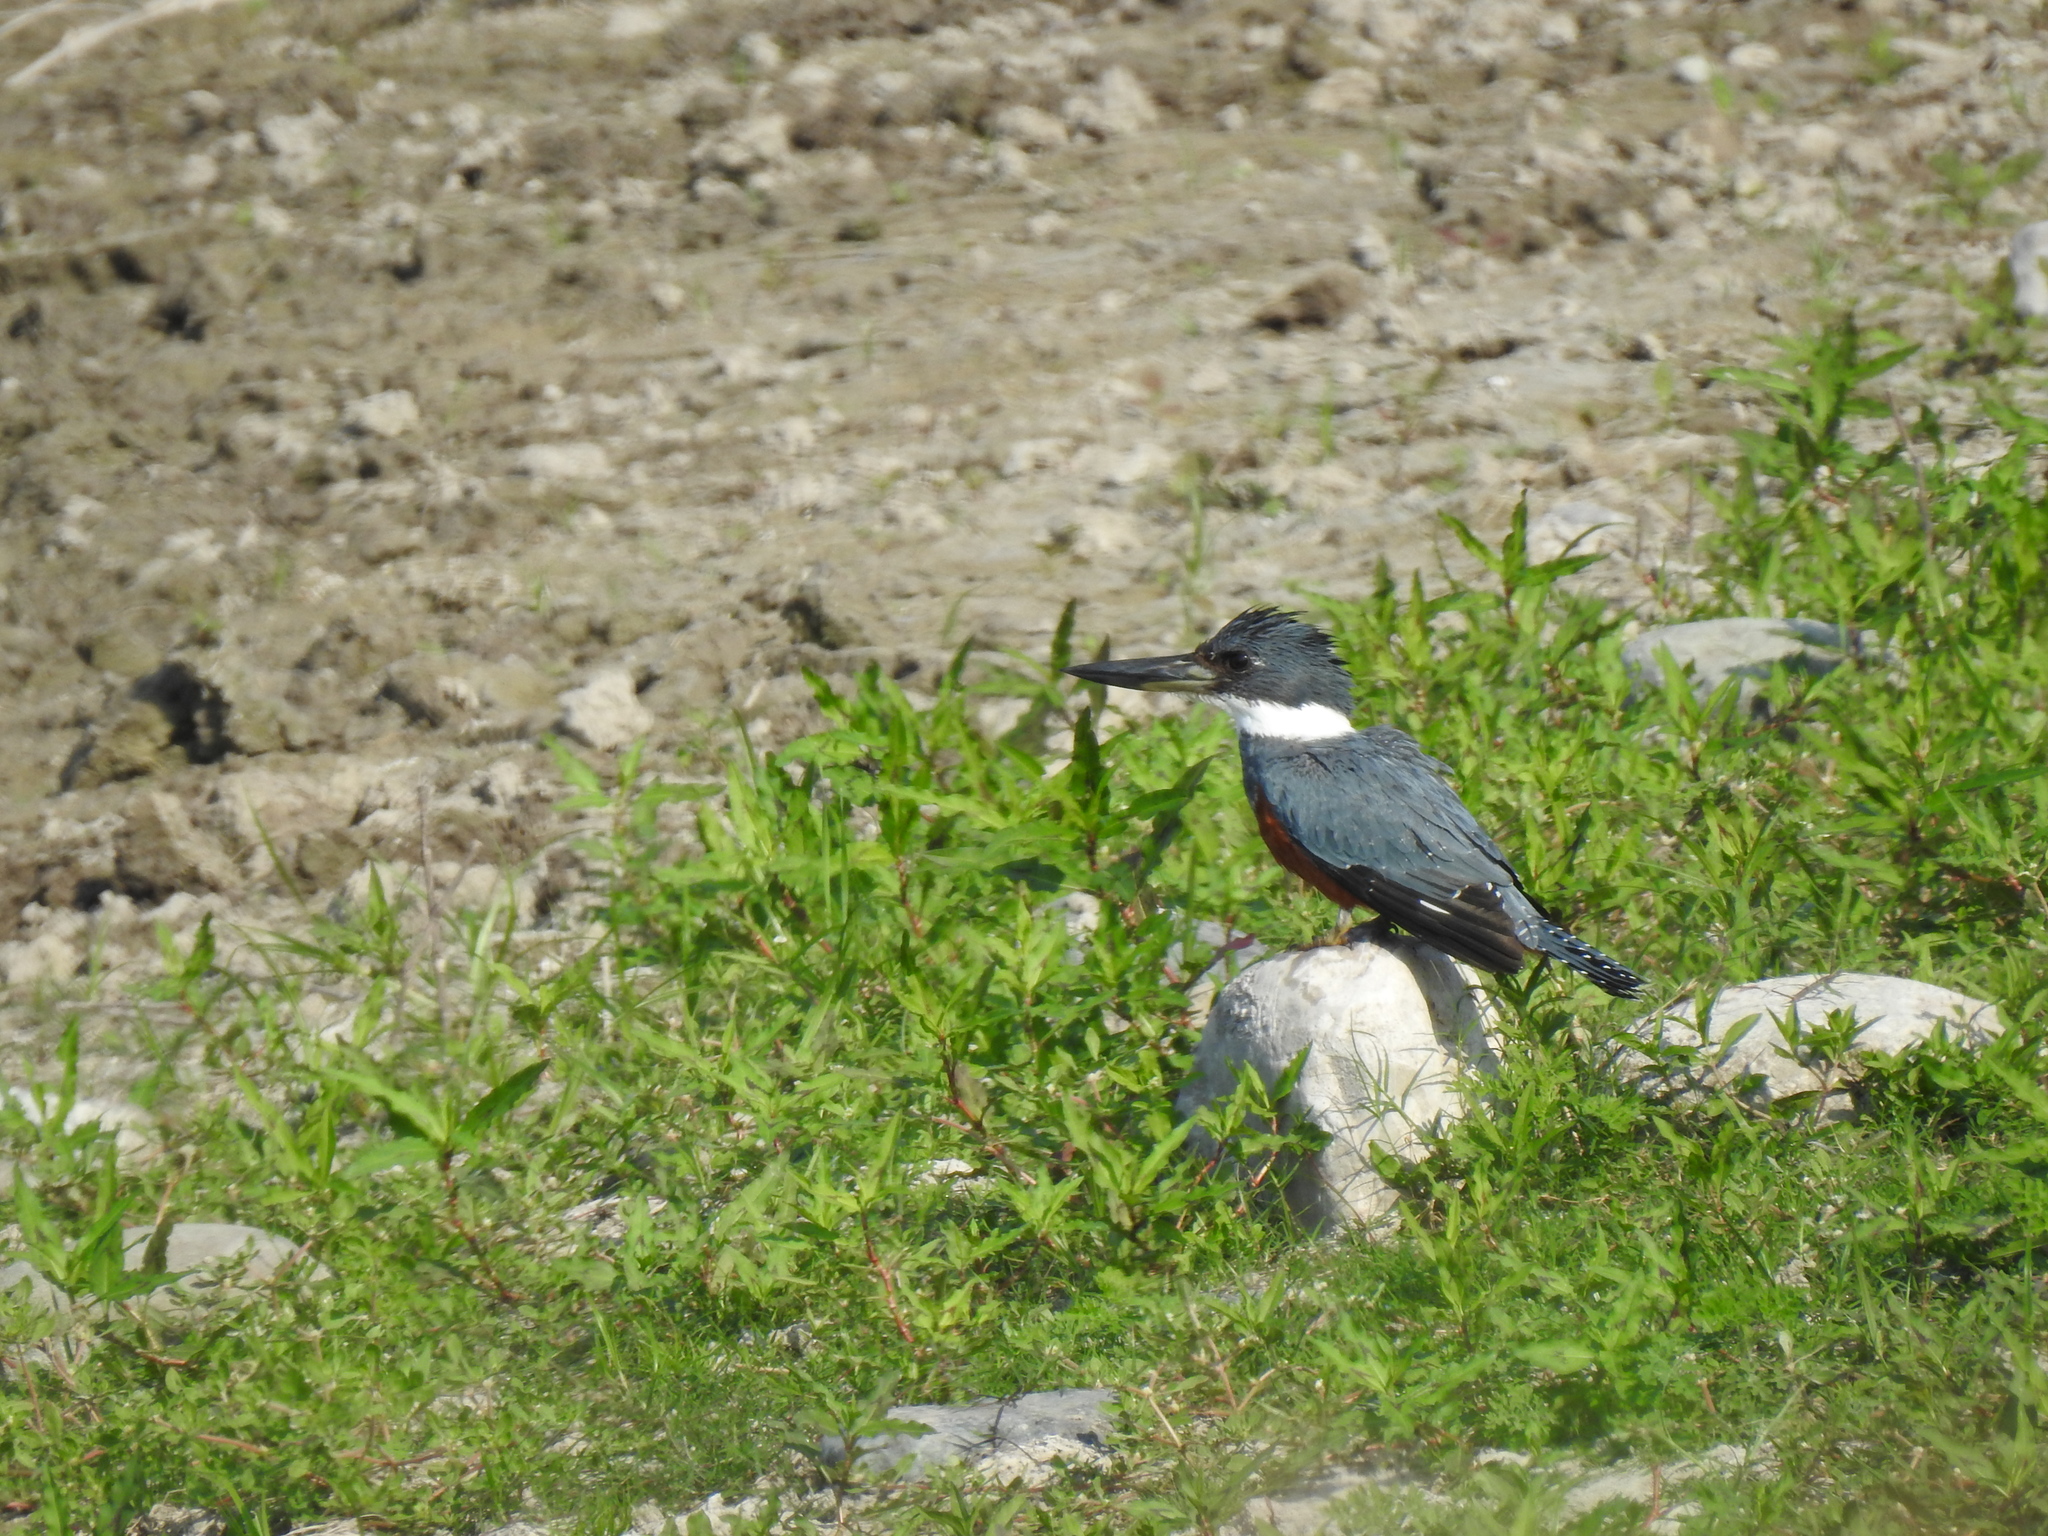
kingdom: Animalia
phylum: Chordata
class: Aves
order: Coraciiformes
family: Alcedinidae
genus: Megaceryle
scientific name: Megaceryle torquata
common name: Ringed kingfisher
